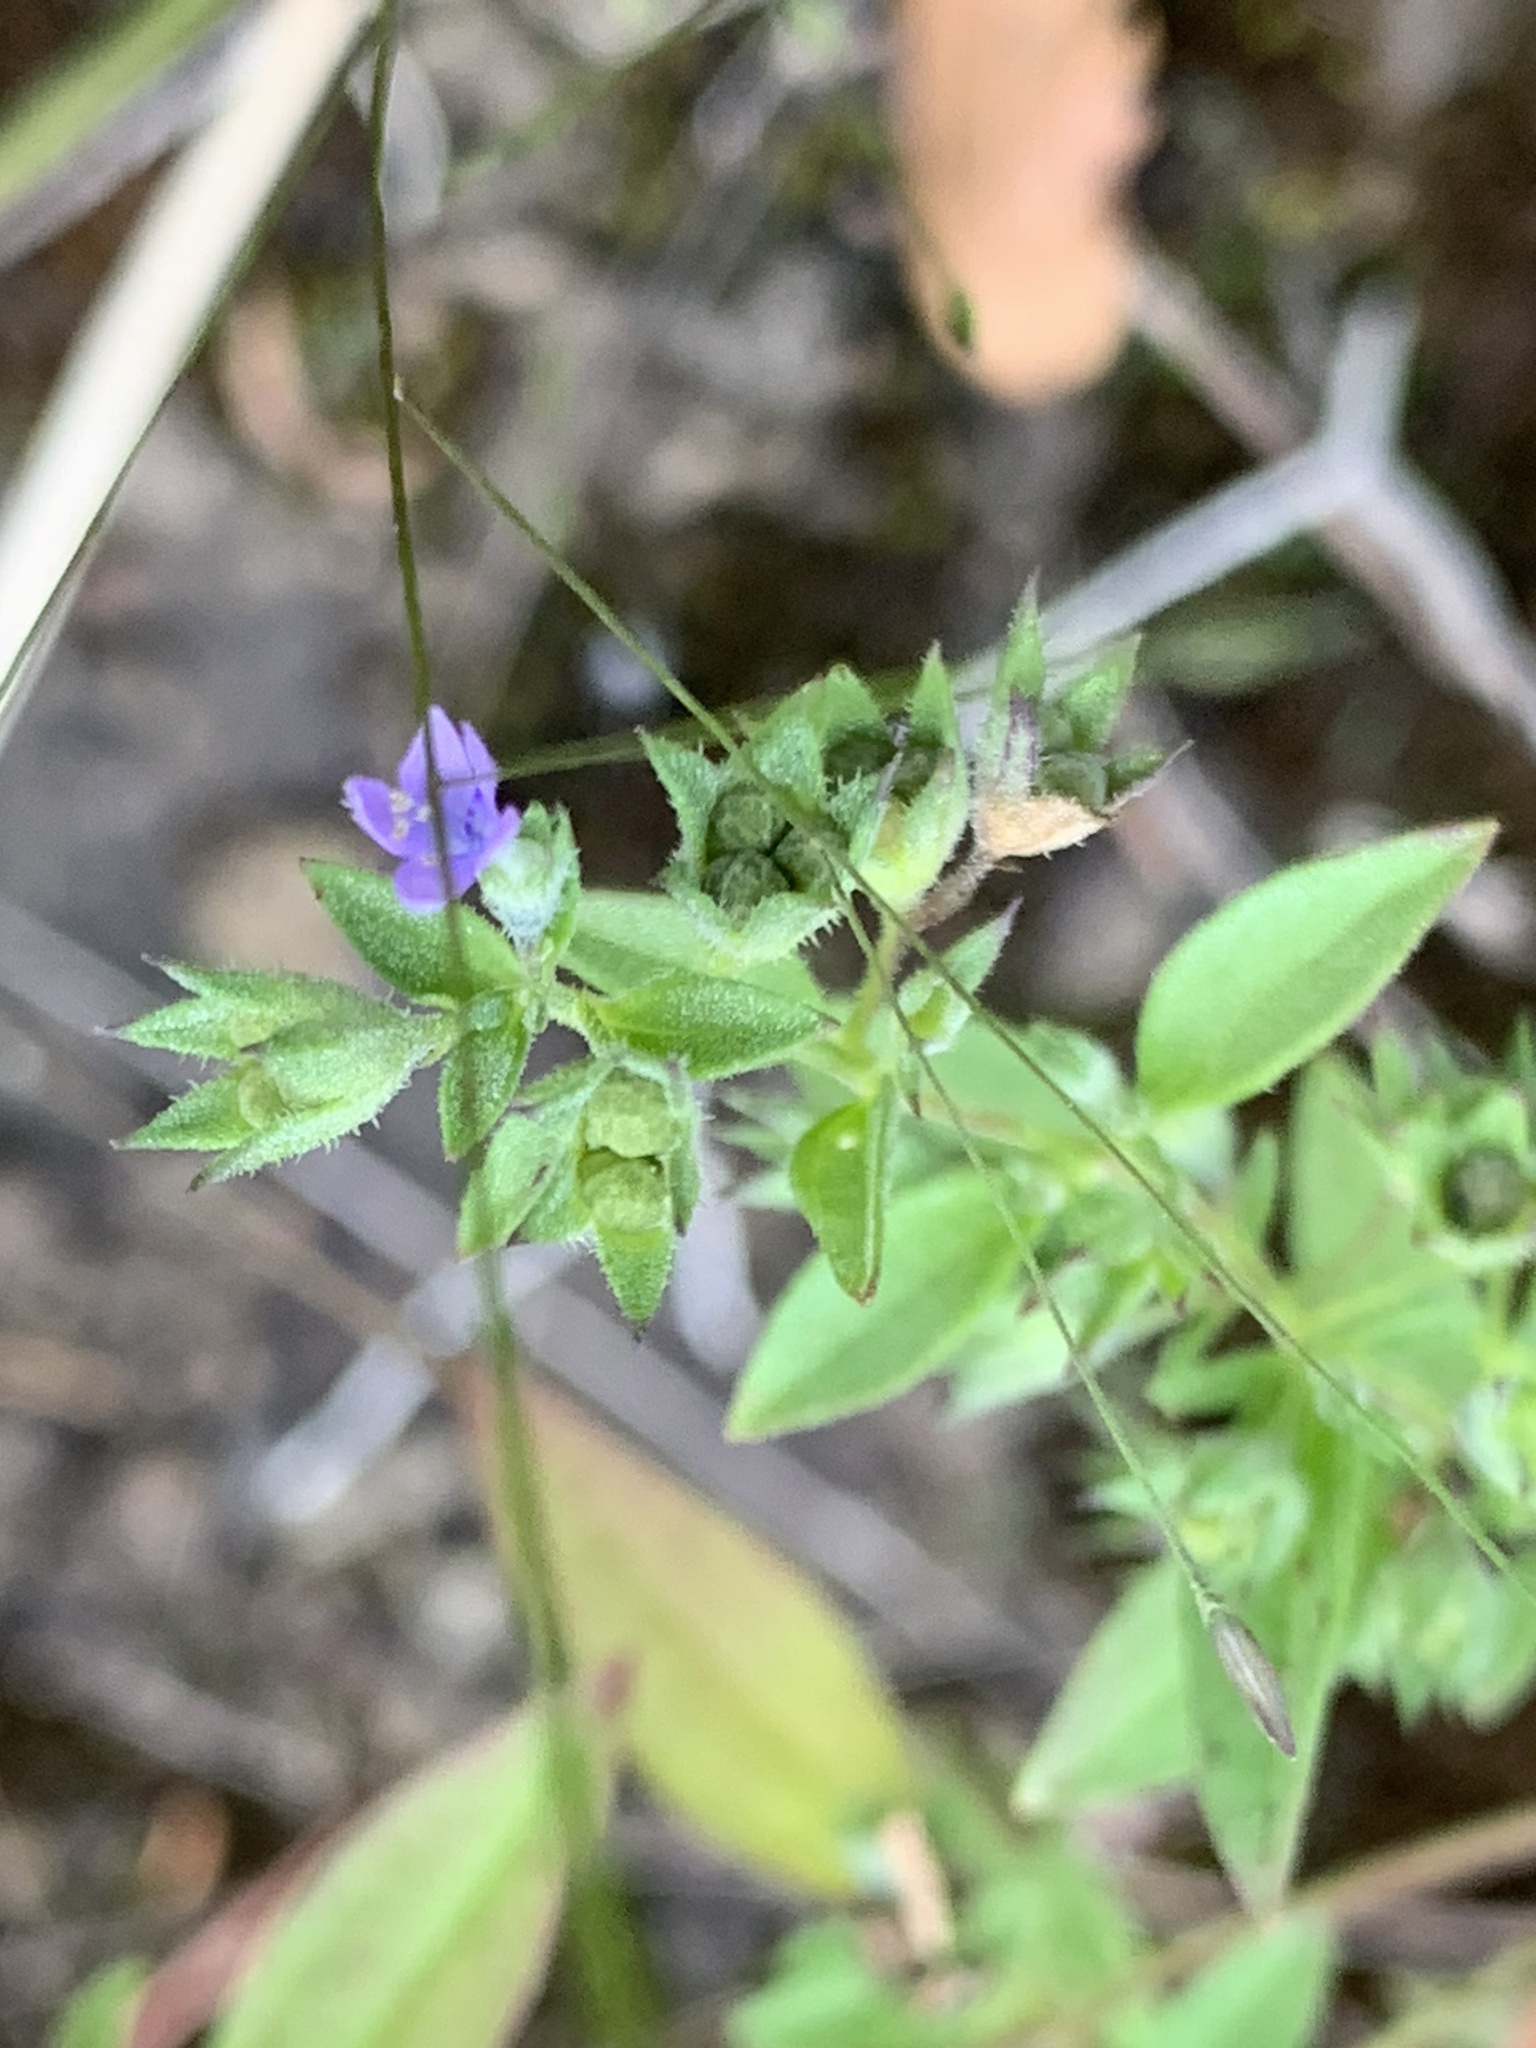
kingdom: Plantae
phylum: Tracheophyta
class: Magnoliopsida
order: Lamiales
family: Lamiaceae
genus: Trichostema
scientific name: Trichostema brachiatum
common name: False pennyroyal
